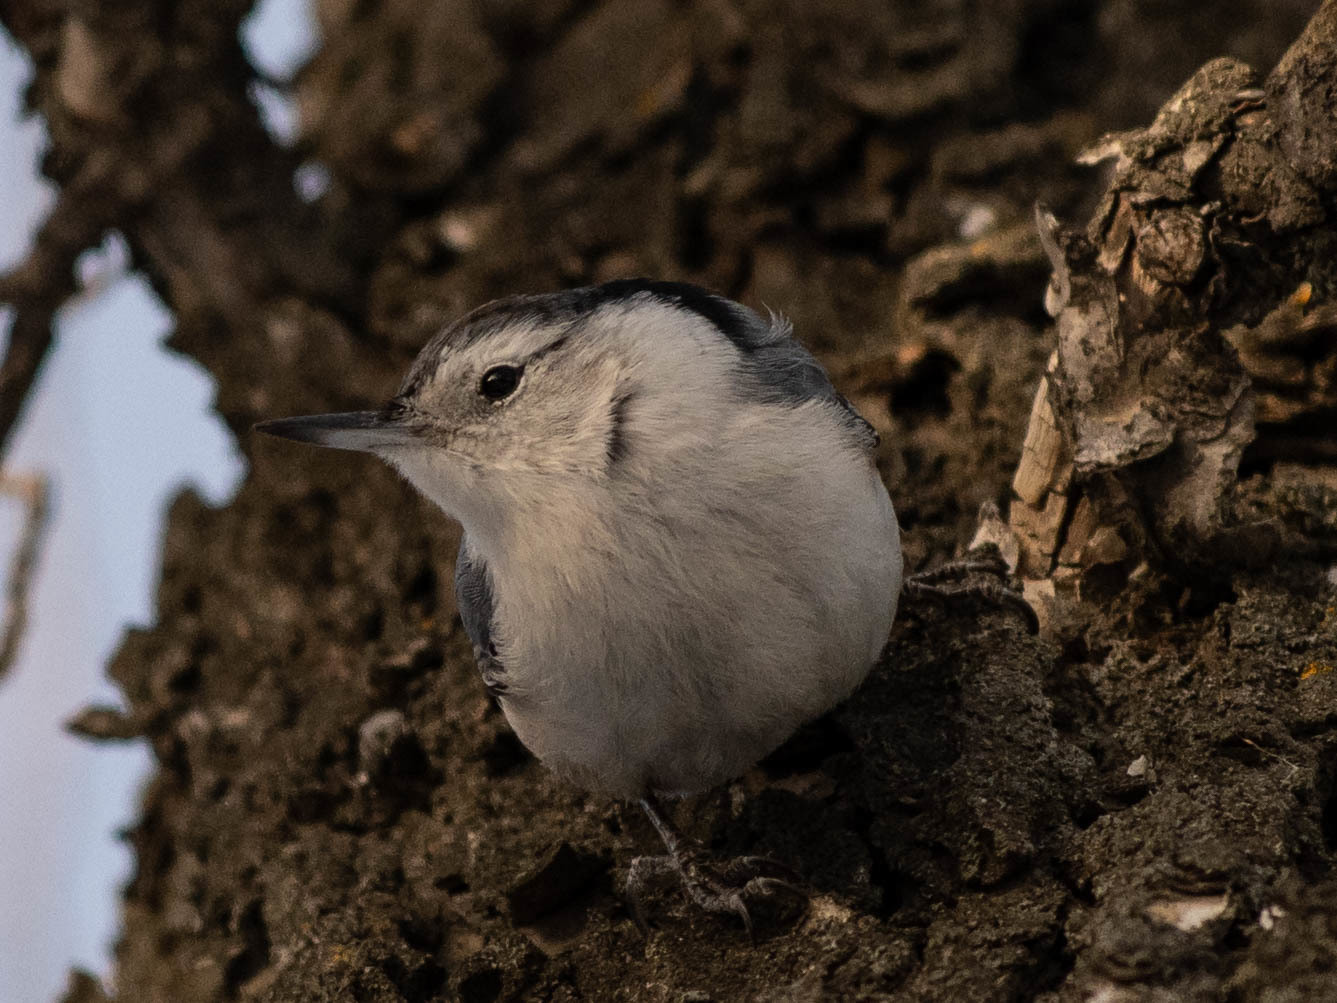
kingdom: Animalia
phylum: Chordata
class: Aves
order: Passeriformes
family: Sittidae
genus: Sitta
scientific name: Sitta carolinensis
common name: White-breasted nuthatch
